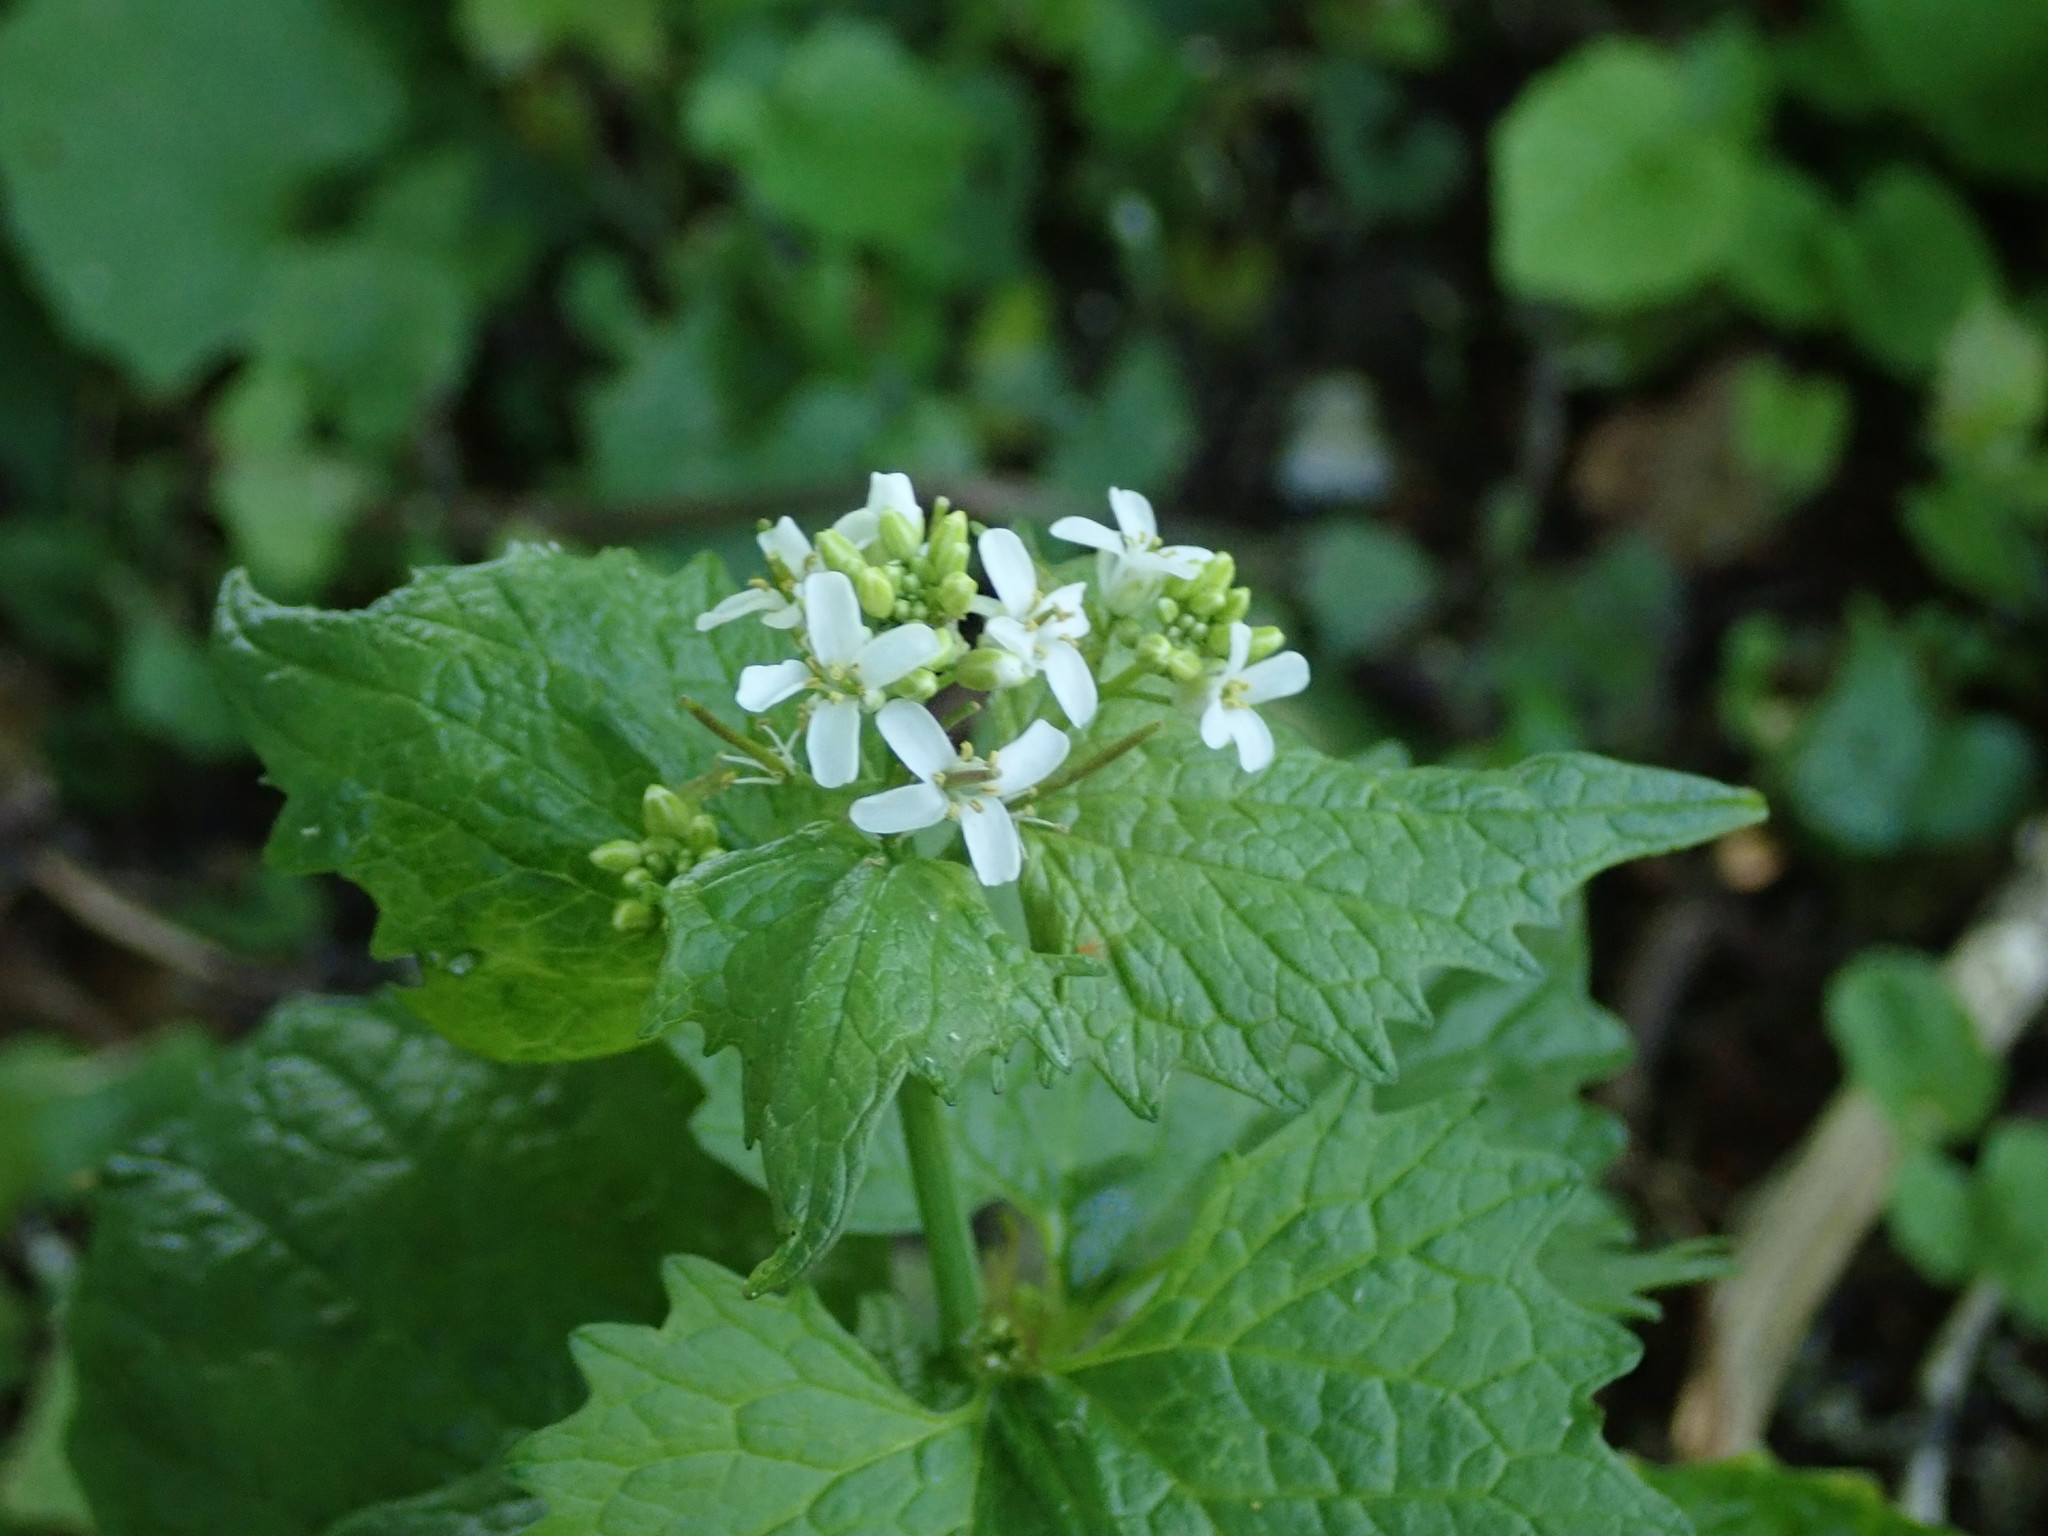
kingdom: Plantae
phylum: Tracheophyta
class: Magnoliopsida
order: Brassicales
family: Brassicaceae
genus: Alliaria
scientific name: Alliaria petiolata
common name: Garlic mustard
